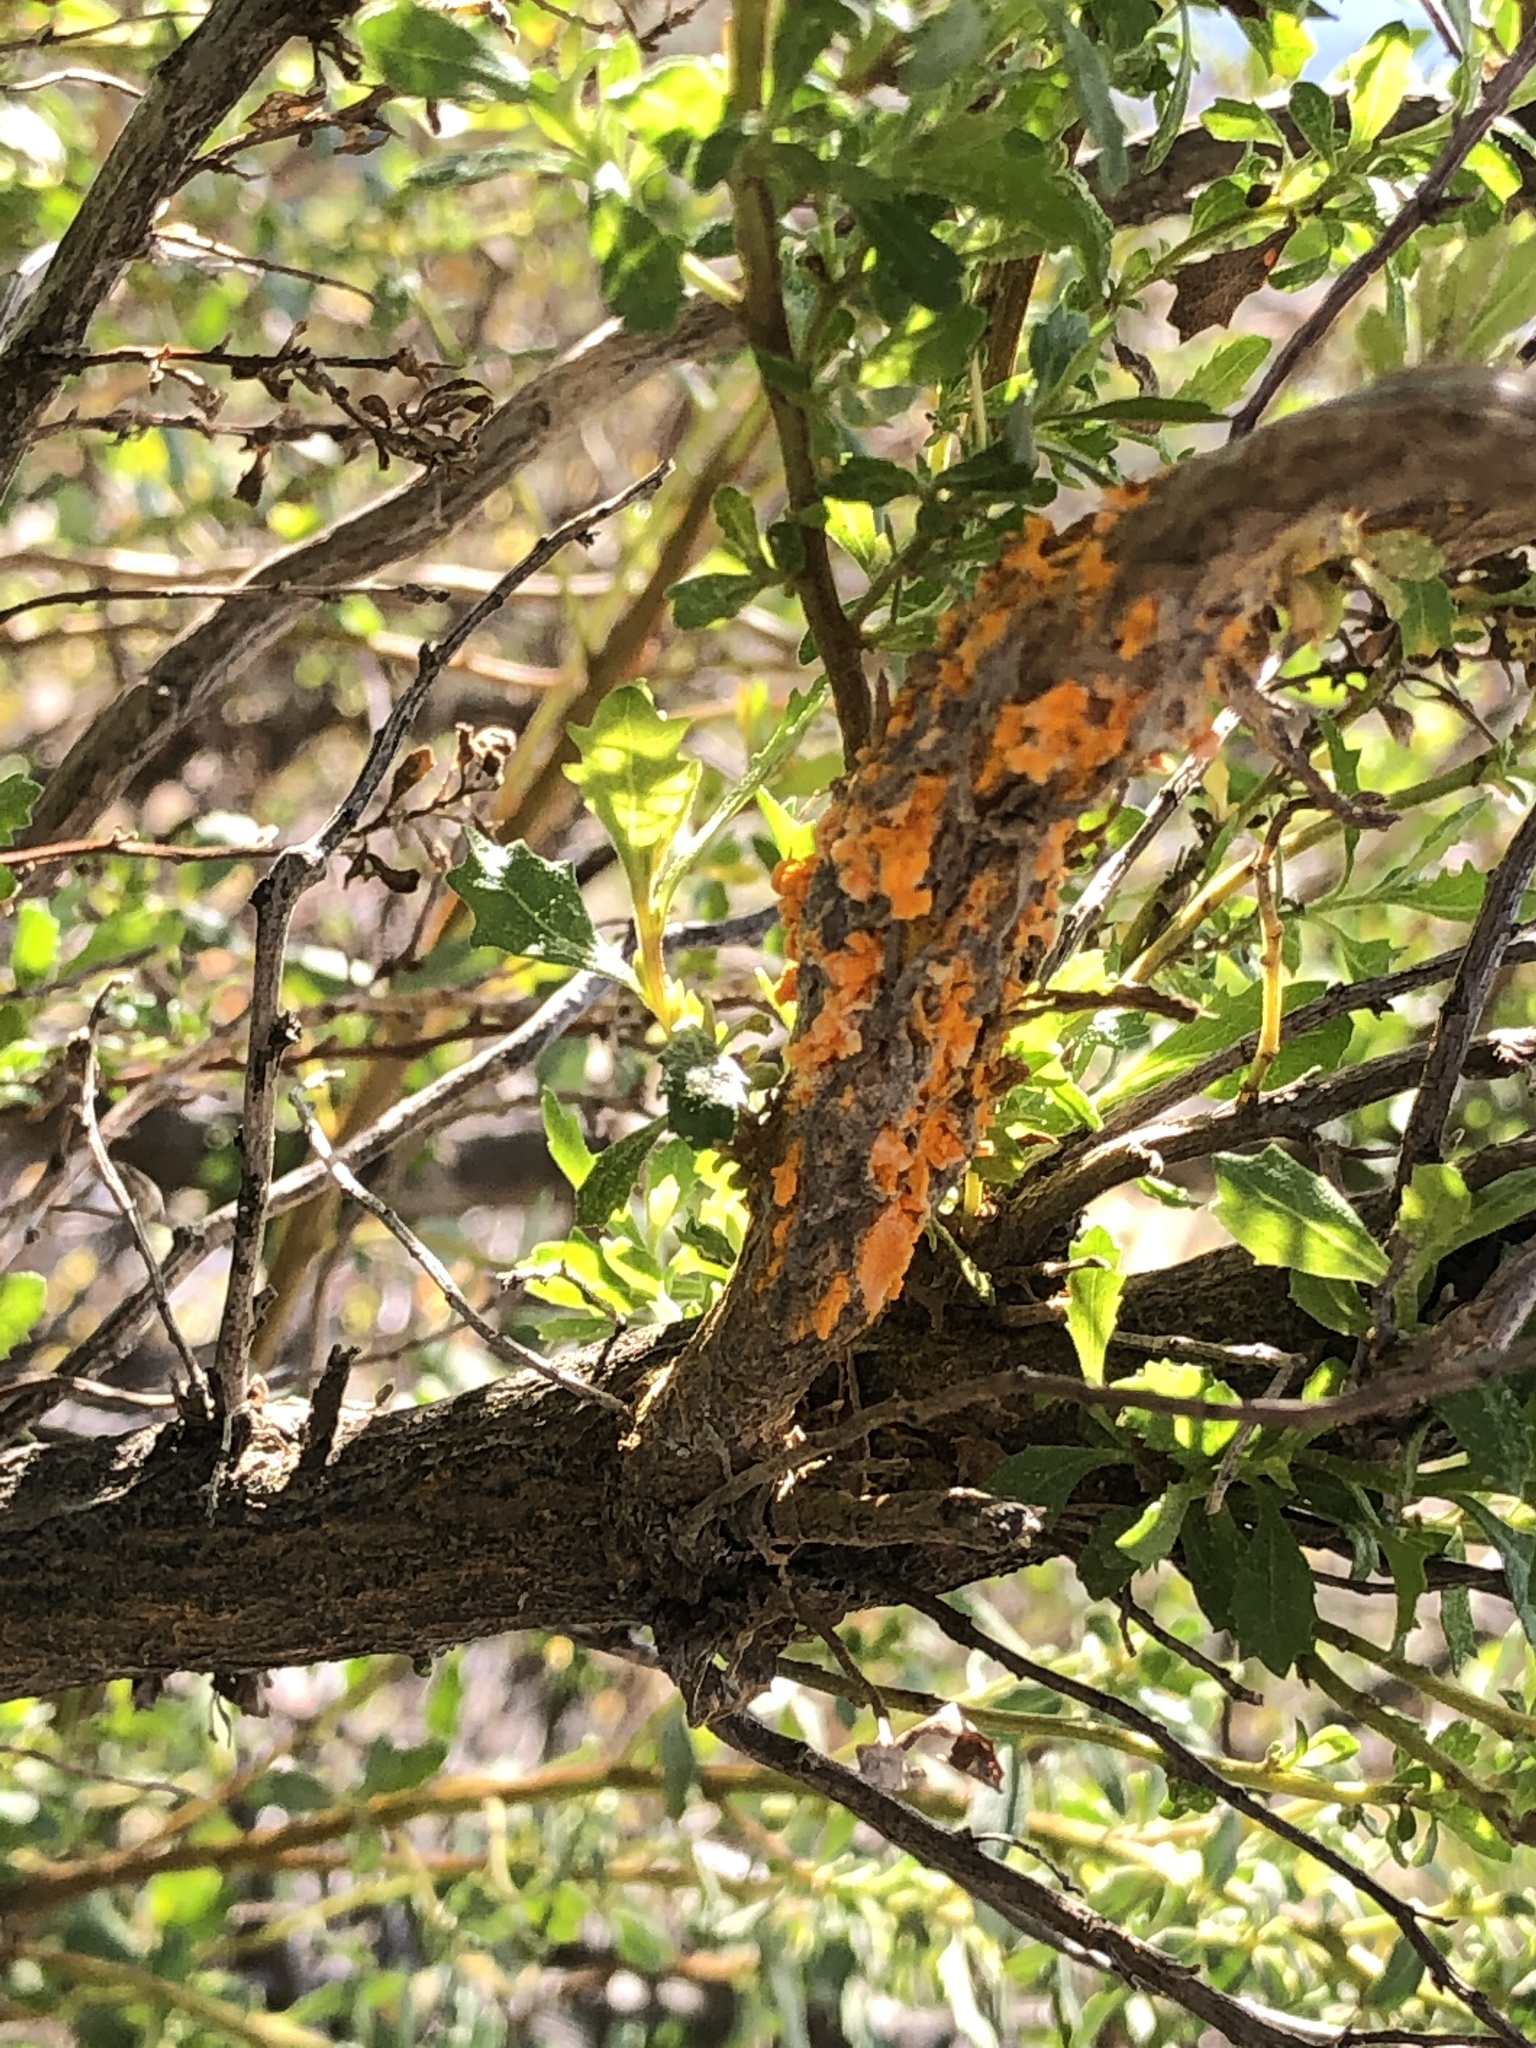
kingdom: Fungi
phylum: Basidiomycota
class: Pucciniomycetes
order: Pucciniales
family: Pucciniaceae
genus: Eriosporangium
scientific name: Eriosporangium evadens
